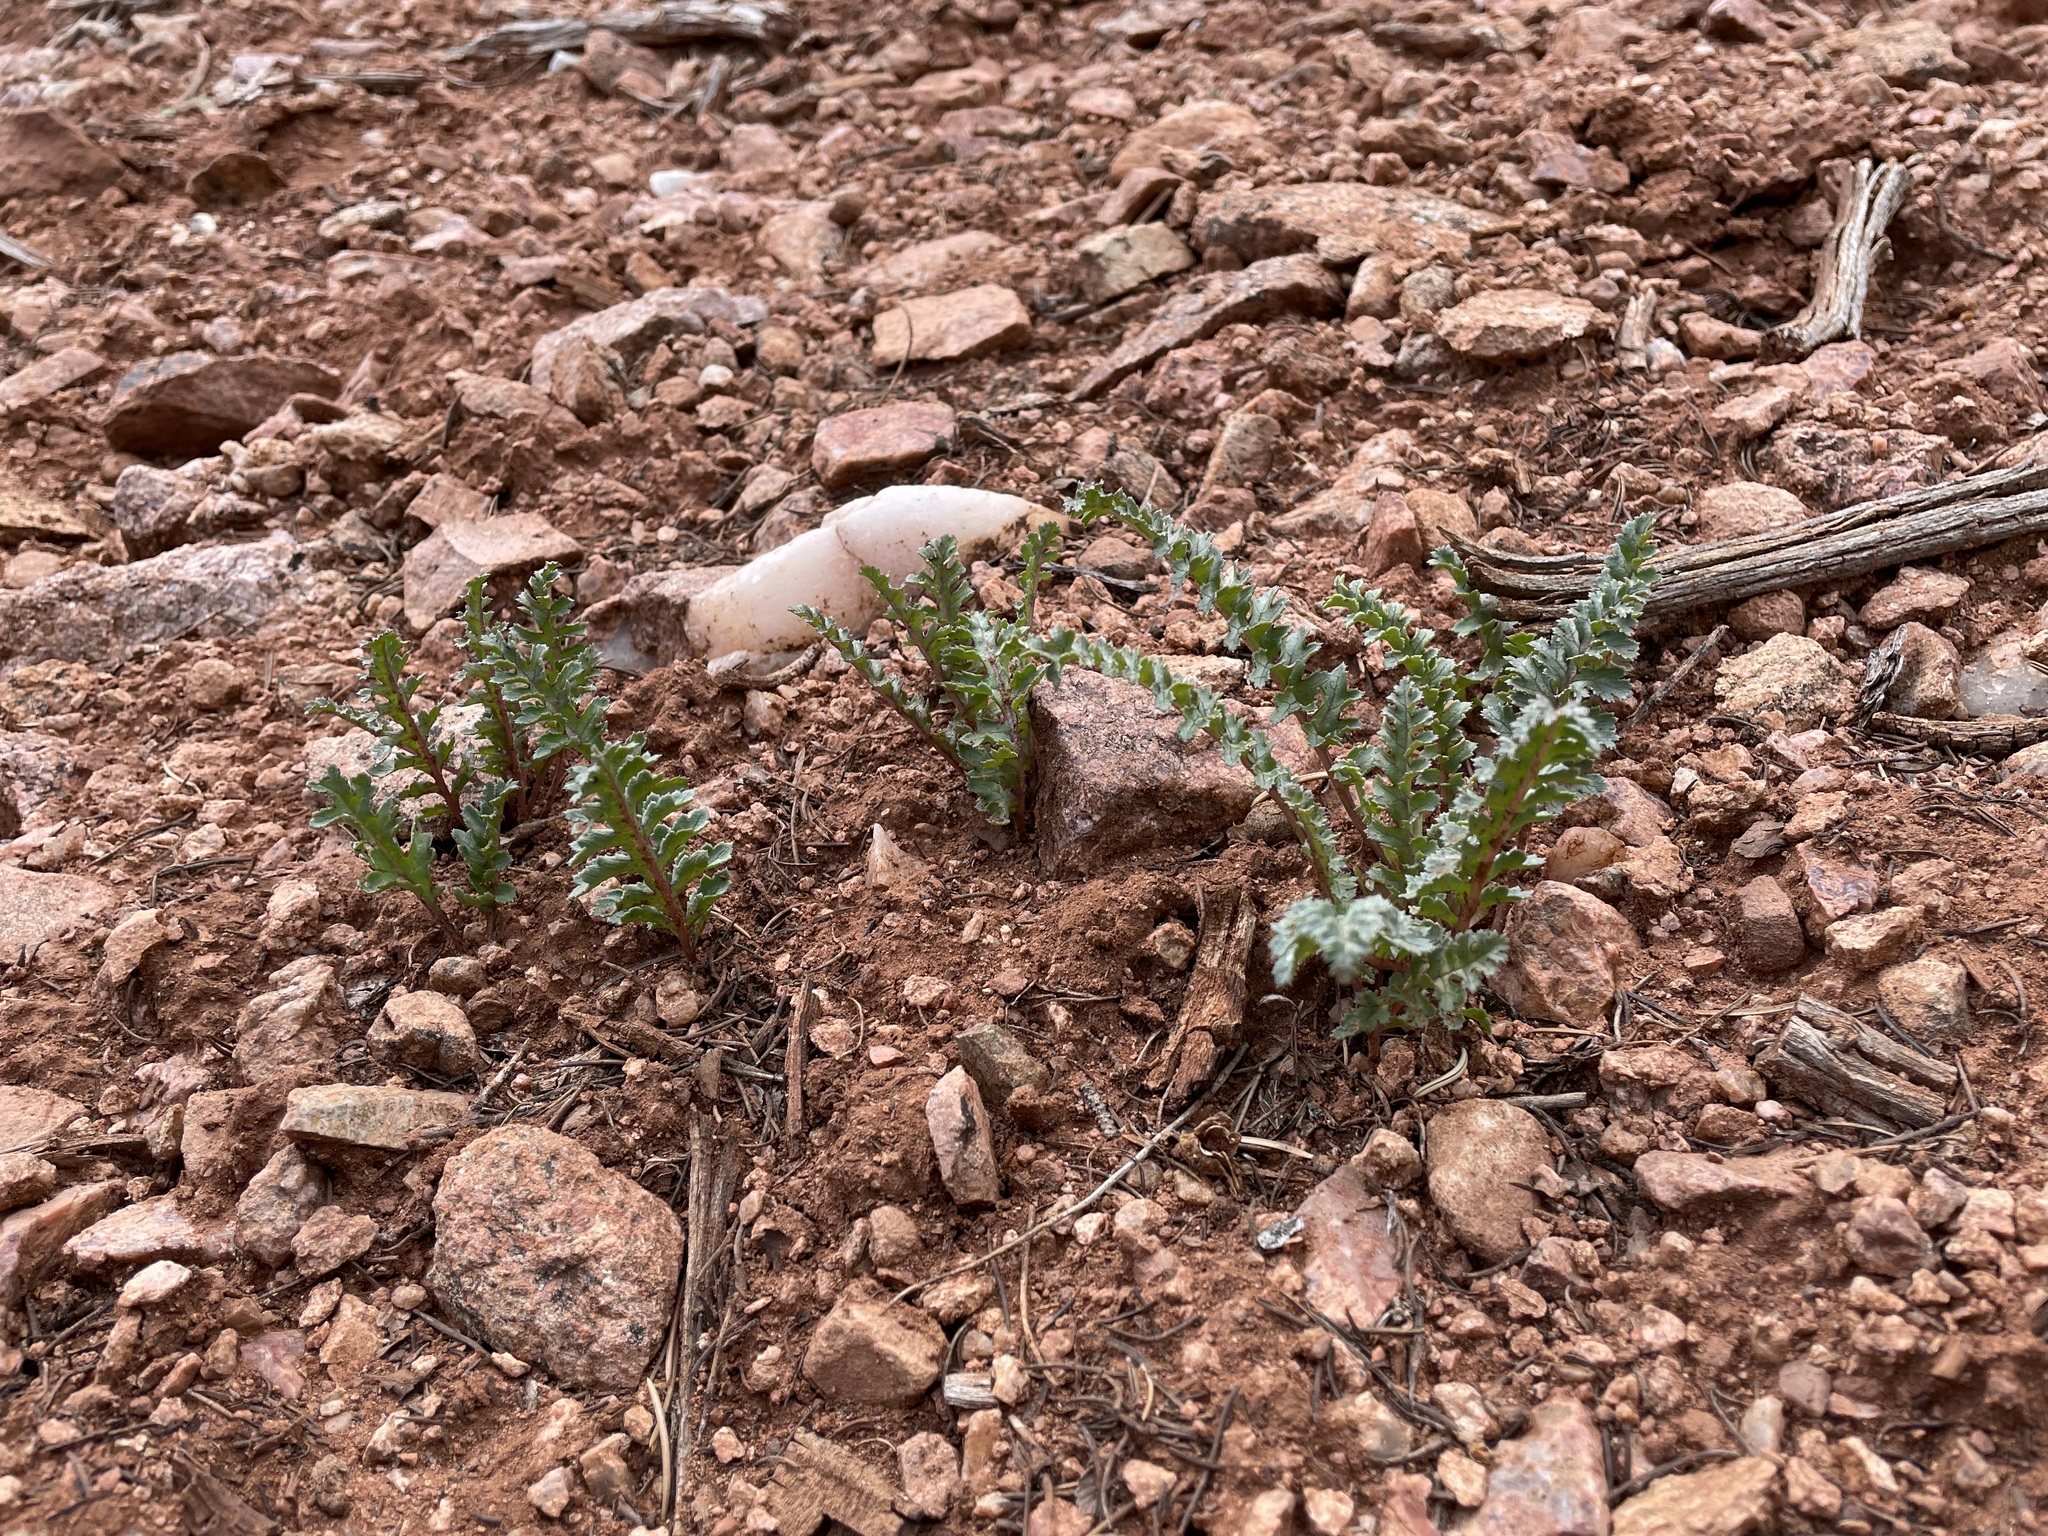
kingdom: Plantae
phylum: Tracheophyta
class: Magnoliopsida
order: Lamiales
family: Orobanchaceae
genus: Pedicularis
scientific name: Pedicularis centranthera
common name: Dwarf lousewort
